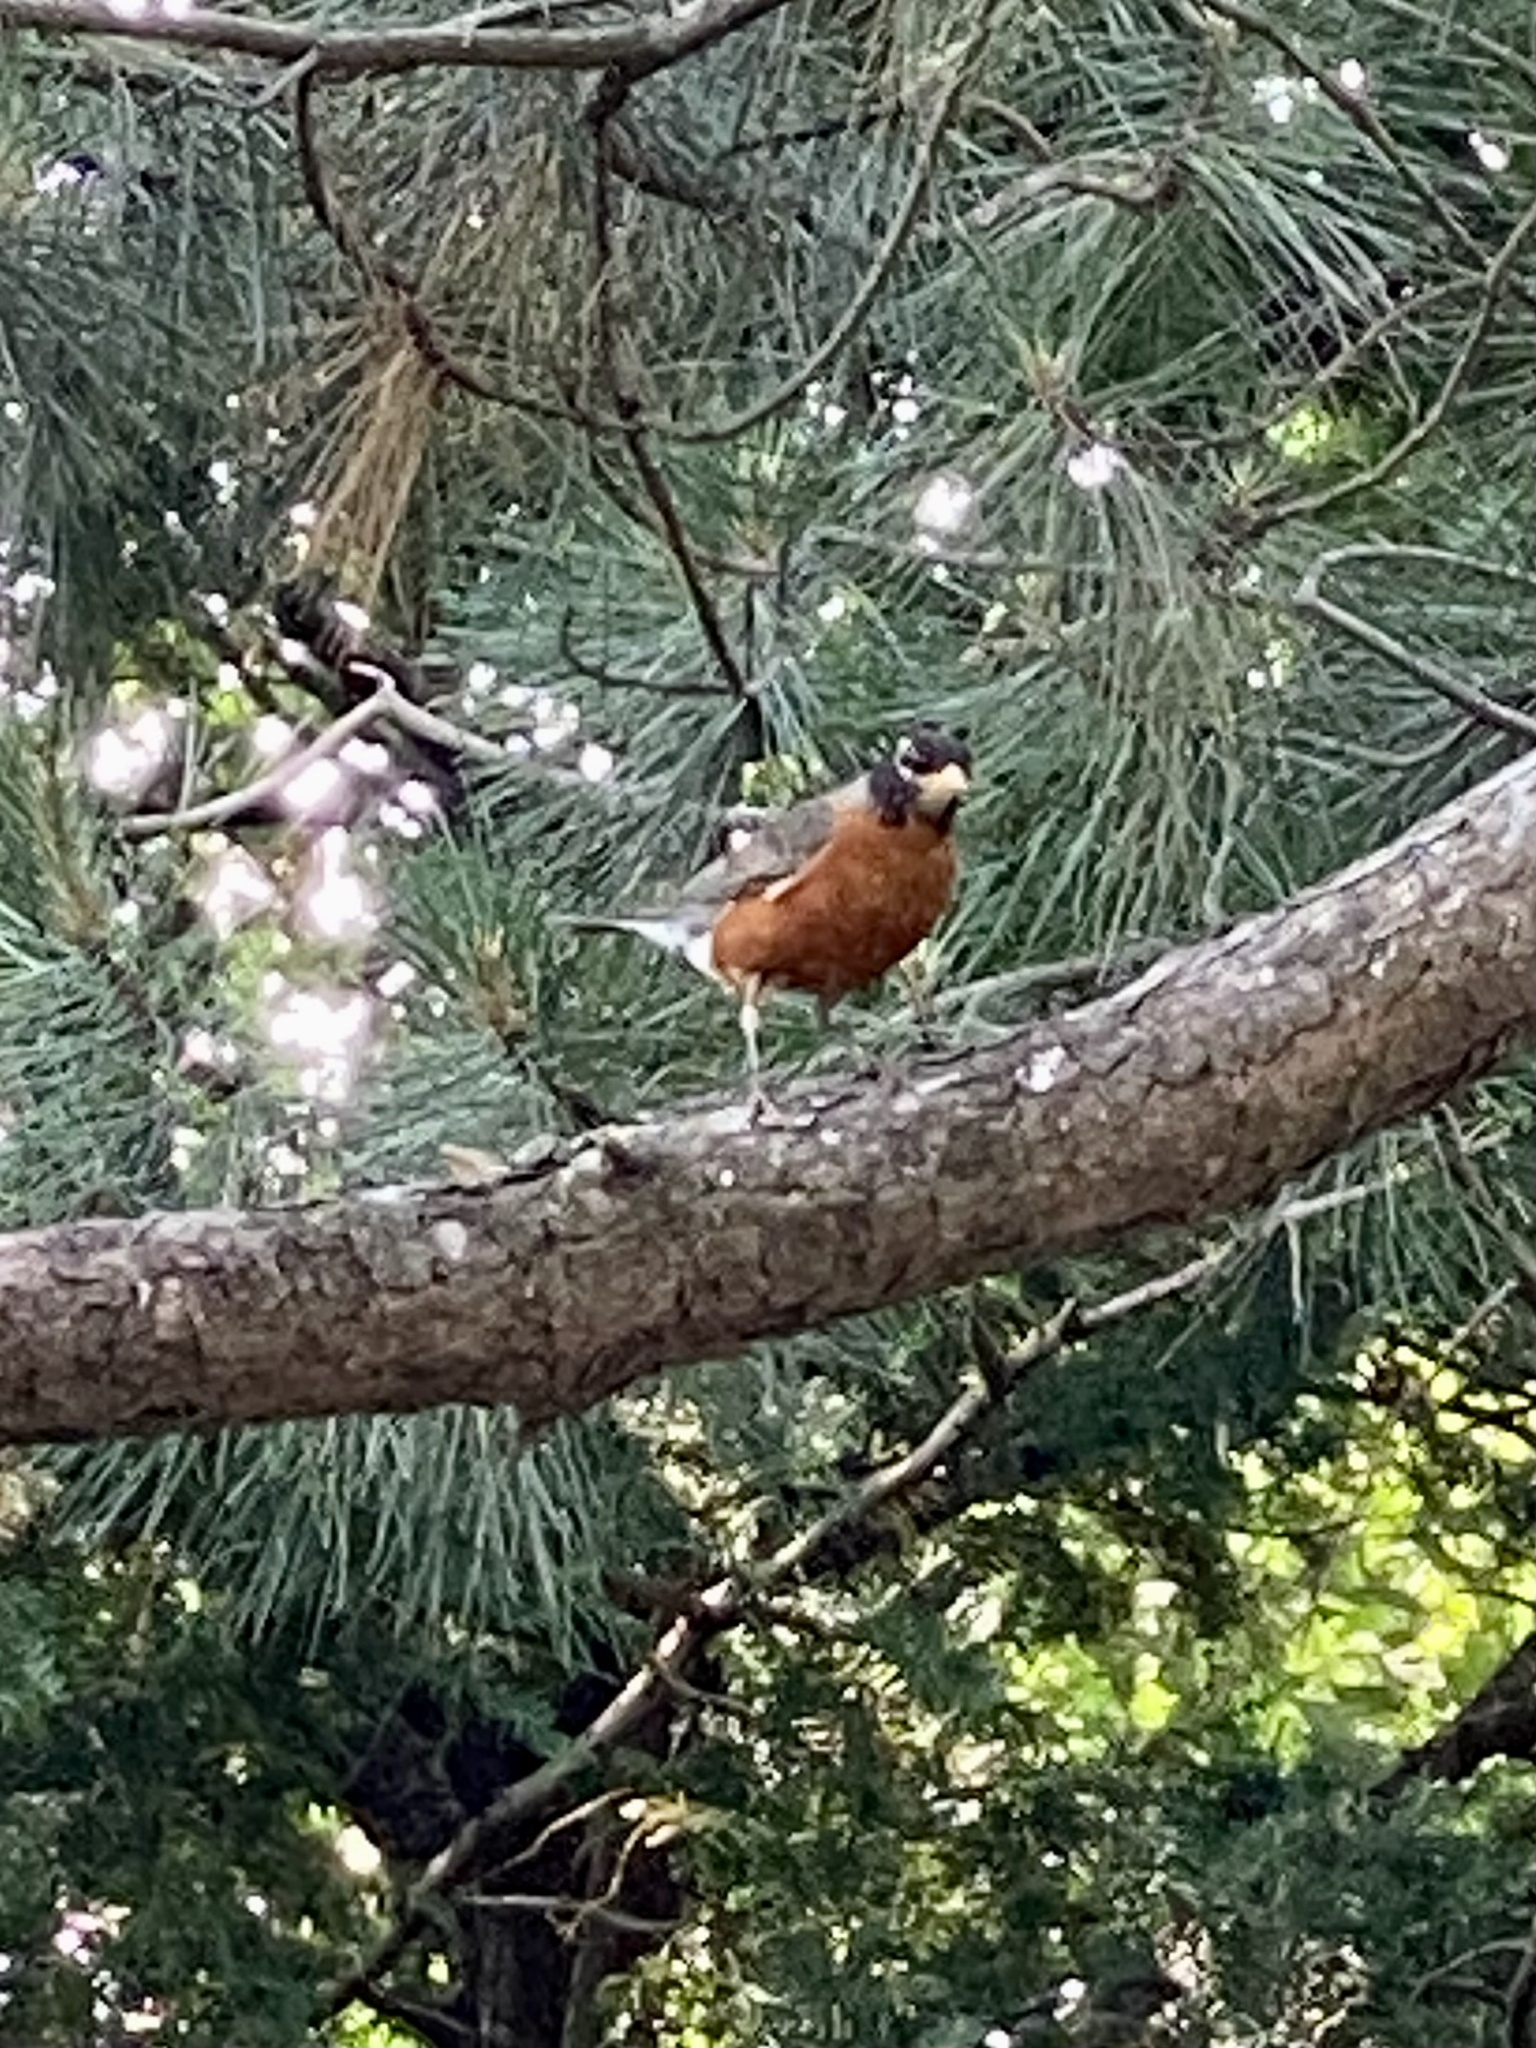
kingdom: Animalia
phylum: Chordata
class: Aves
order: Passeriformes
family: Turdidae
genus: Turdus
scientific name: Turdus migratorius
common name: American robin
